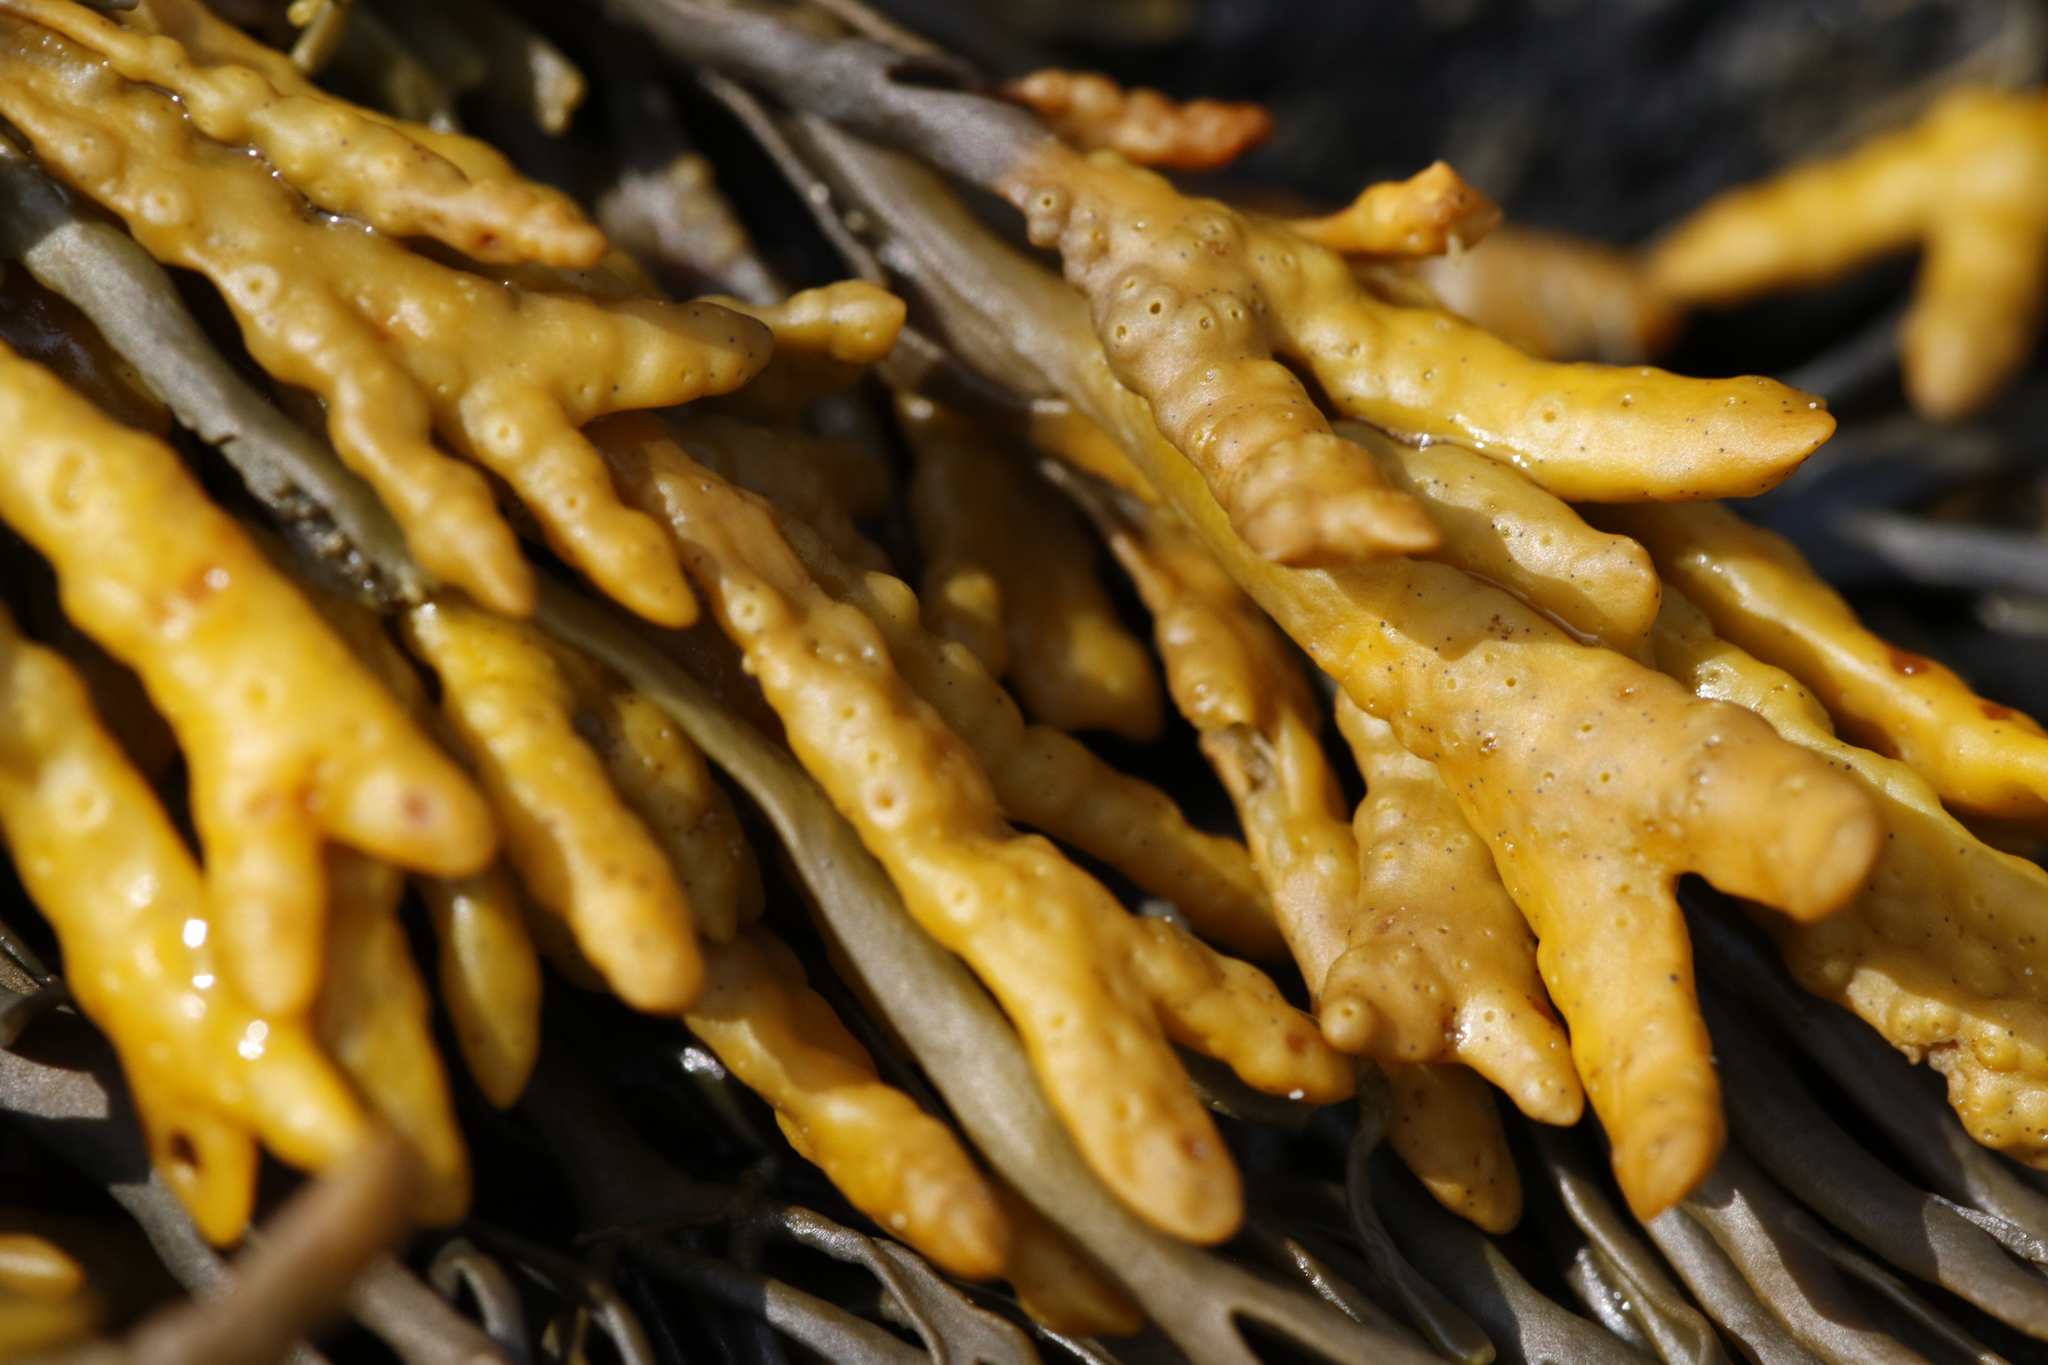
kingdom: Chromista
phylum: Ochrophyta
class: Phaeophyceae
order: Fucales
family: Fucaceae
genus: Pelvetia
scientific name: Pelvetia canaliculata
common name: Channelled wrack
